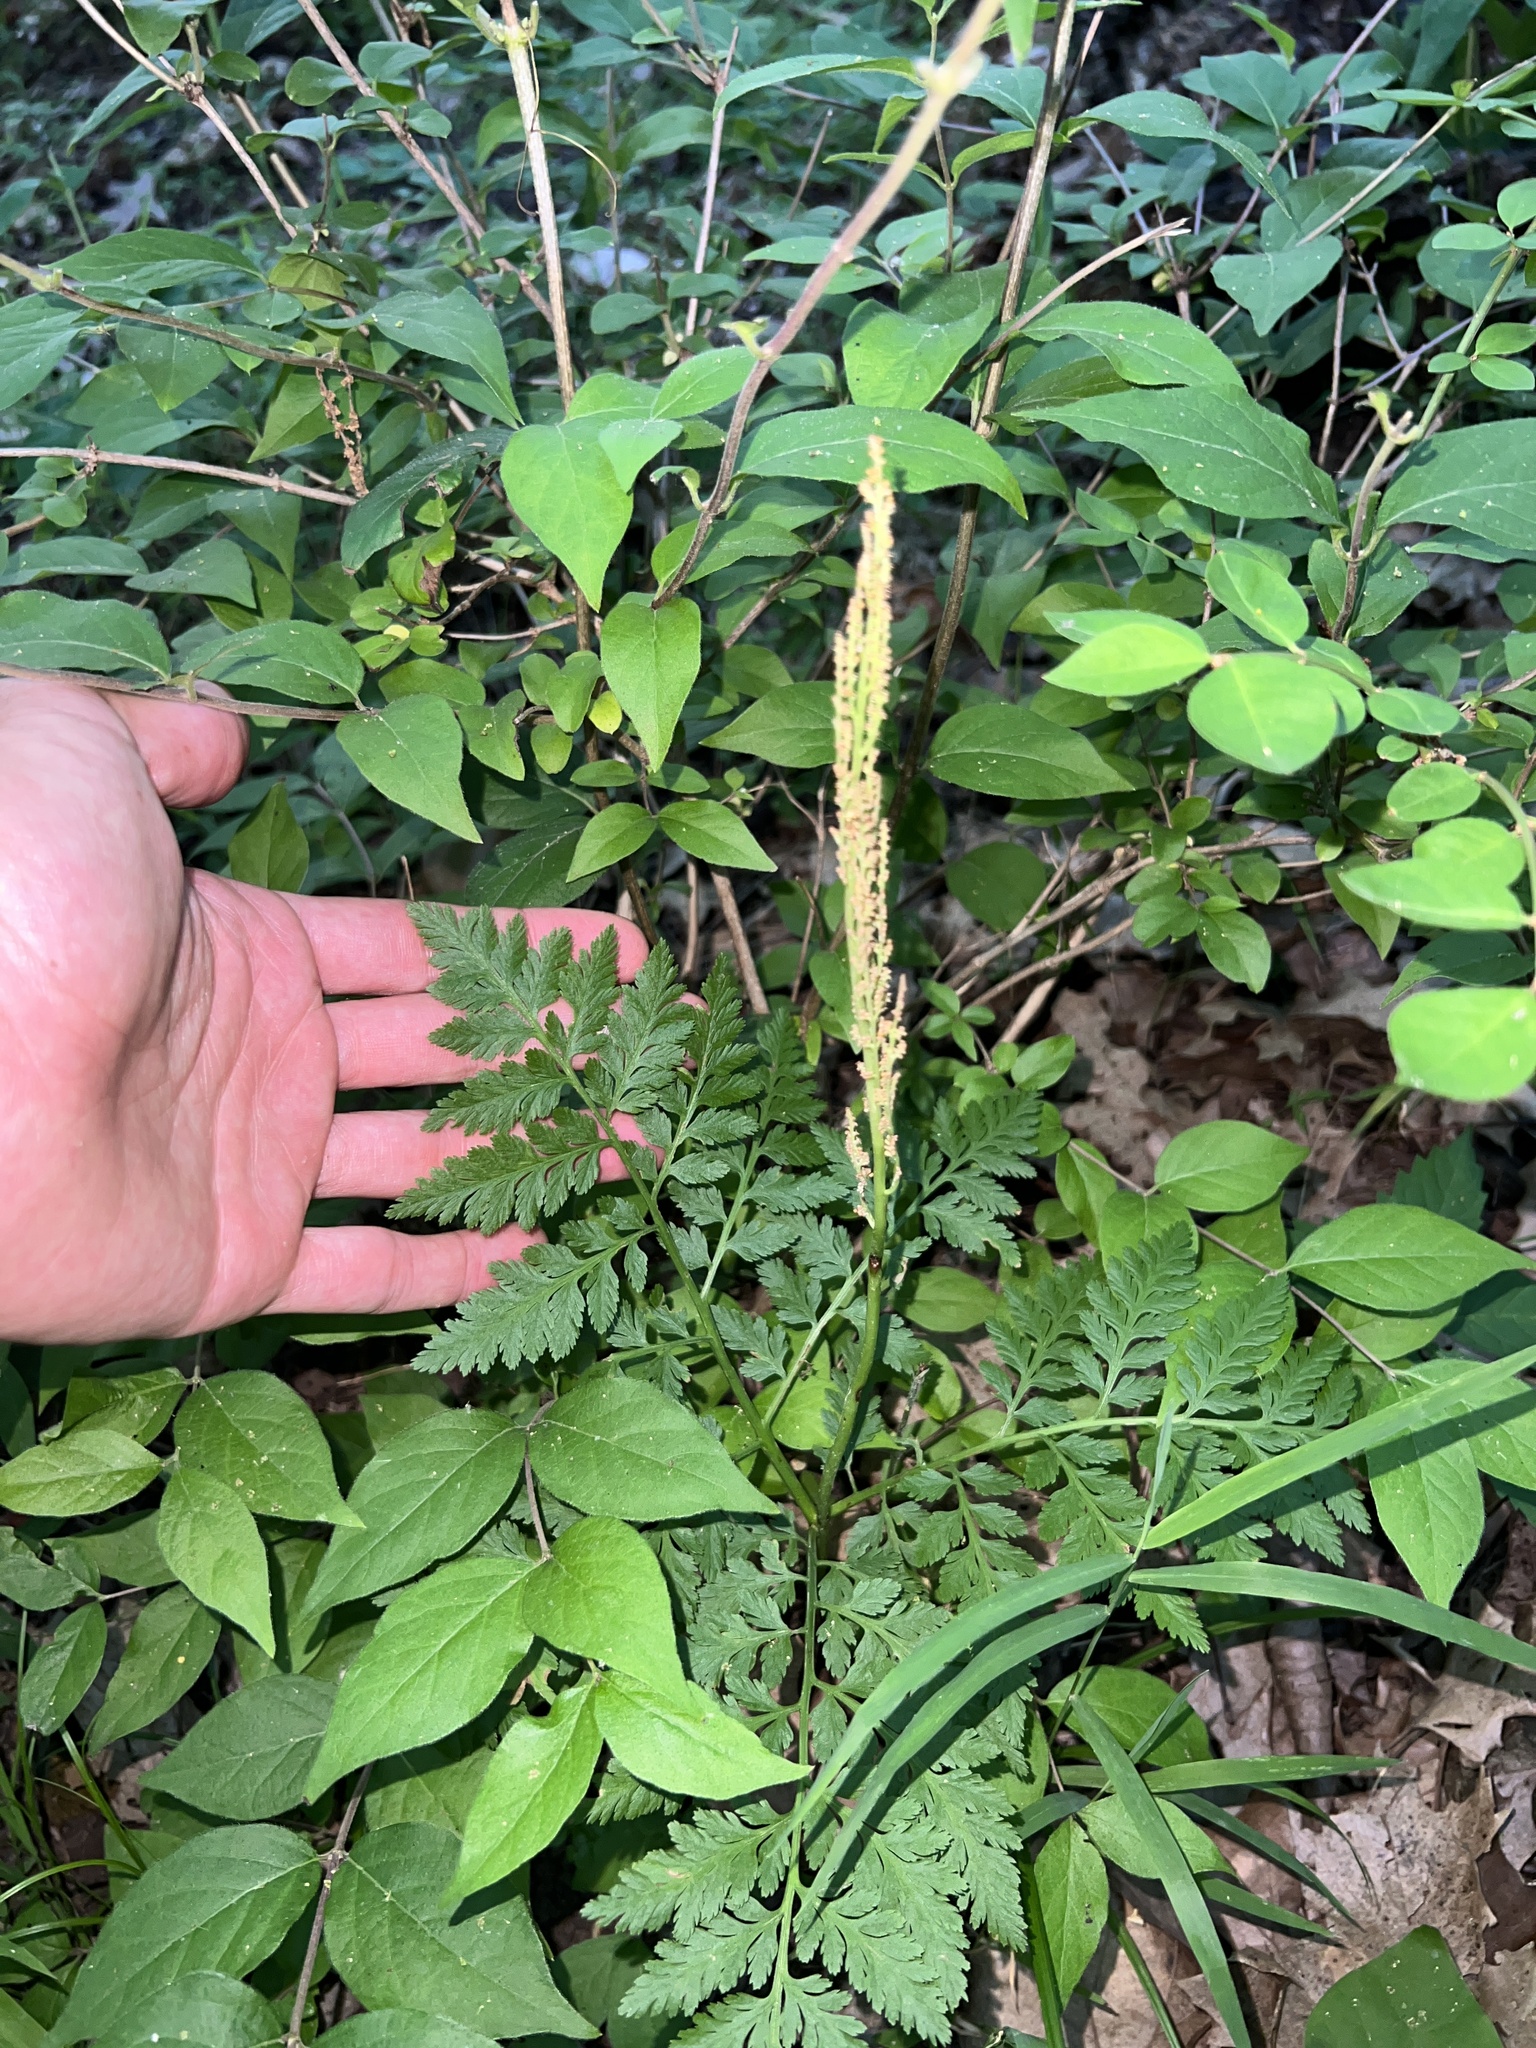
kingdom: Plantae
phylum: Tracheophyta
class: Polypodiopsida
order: Ophioglossales
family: Ophioglossaceae
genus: Botrypus
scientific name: Botrypus virginianus
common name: Common grapefern
